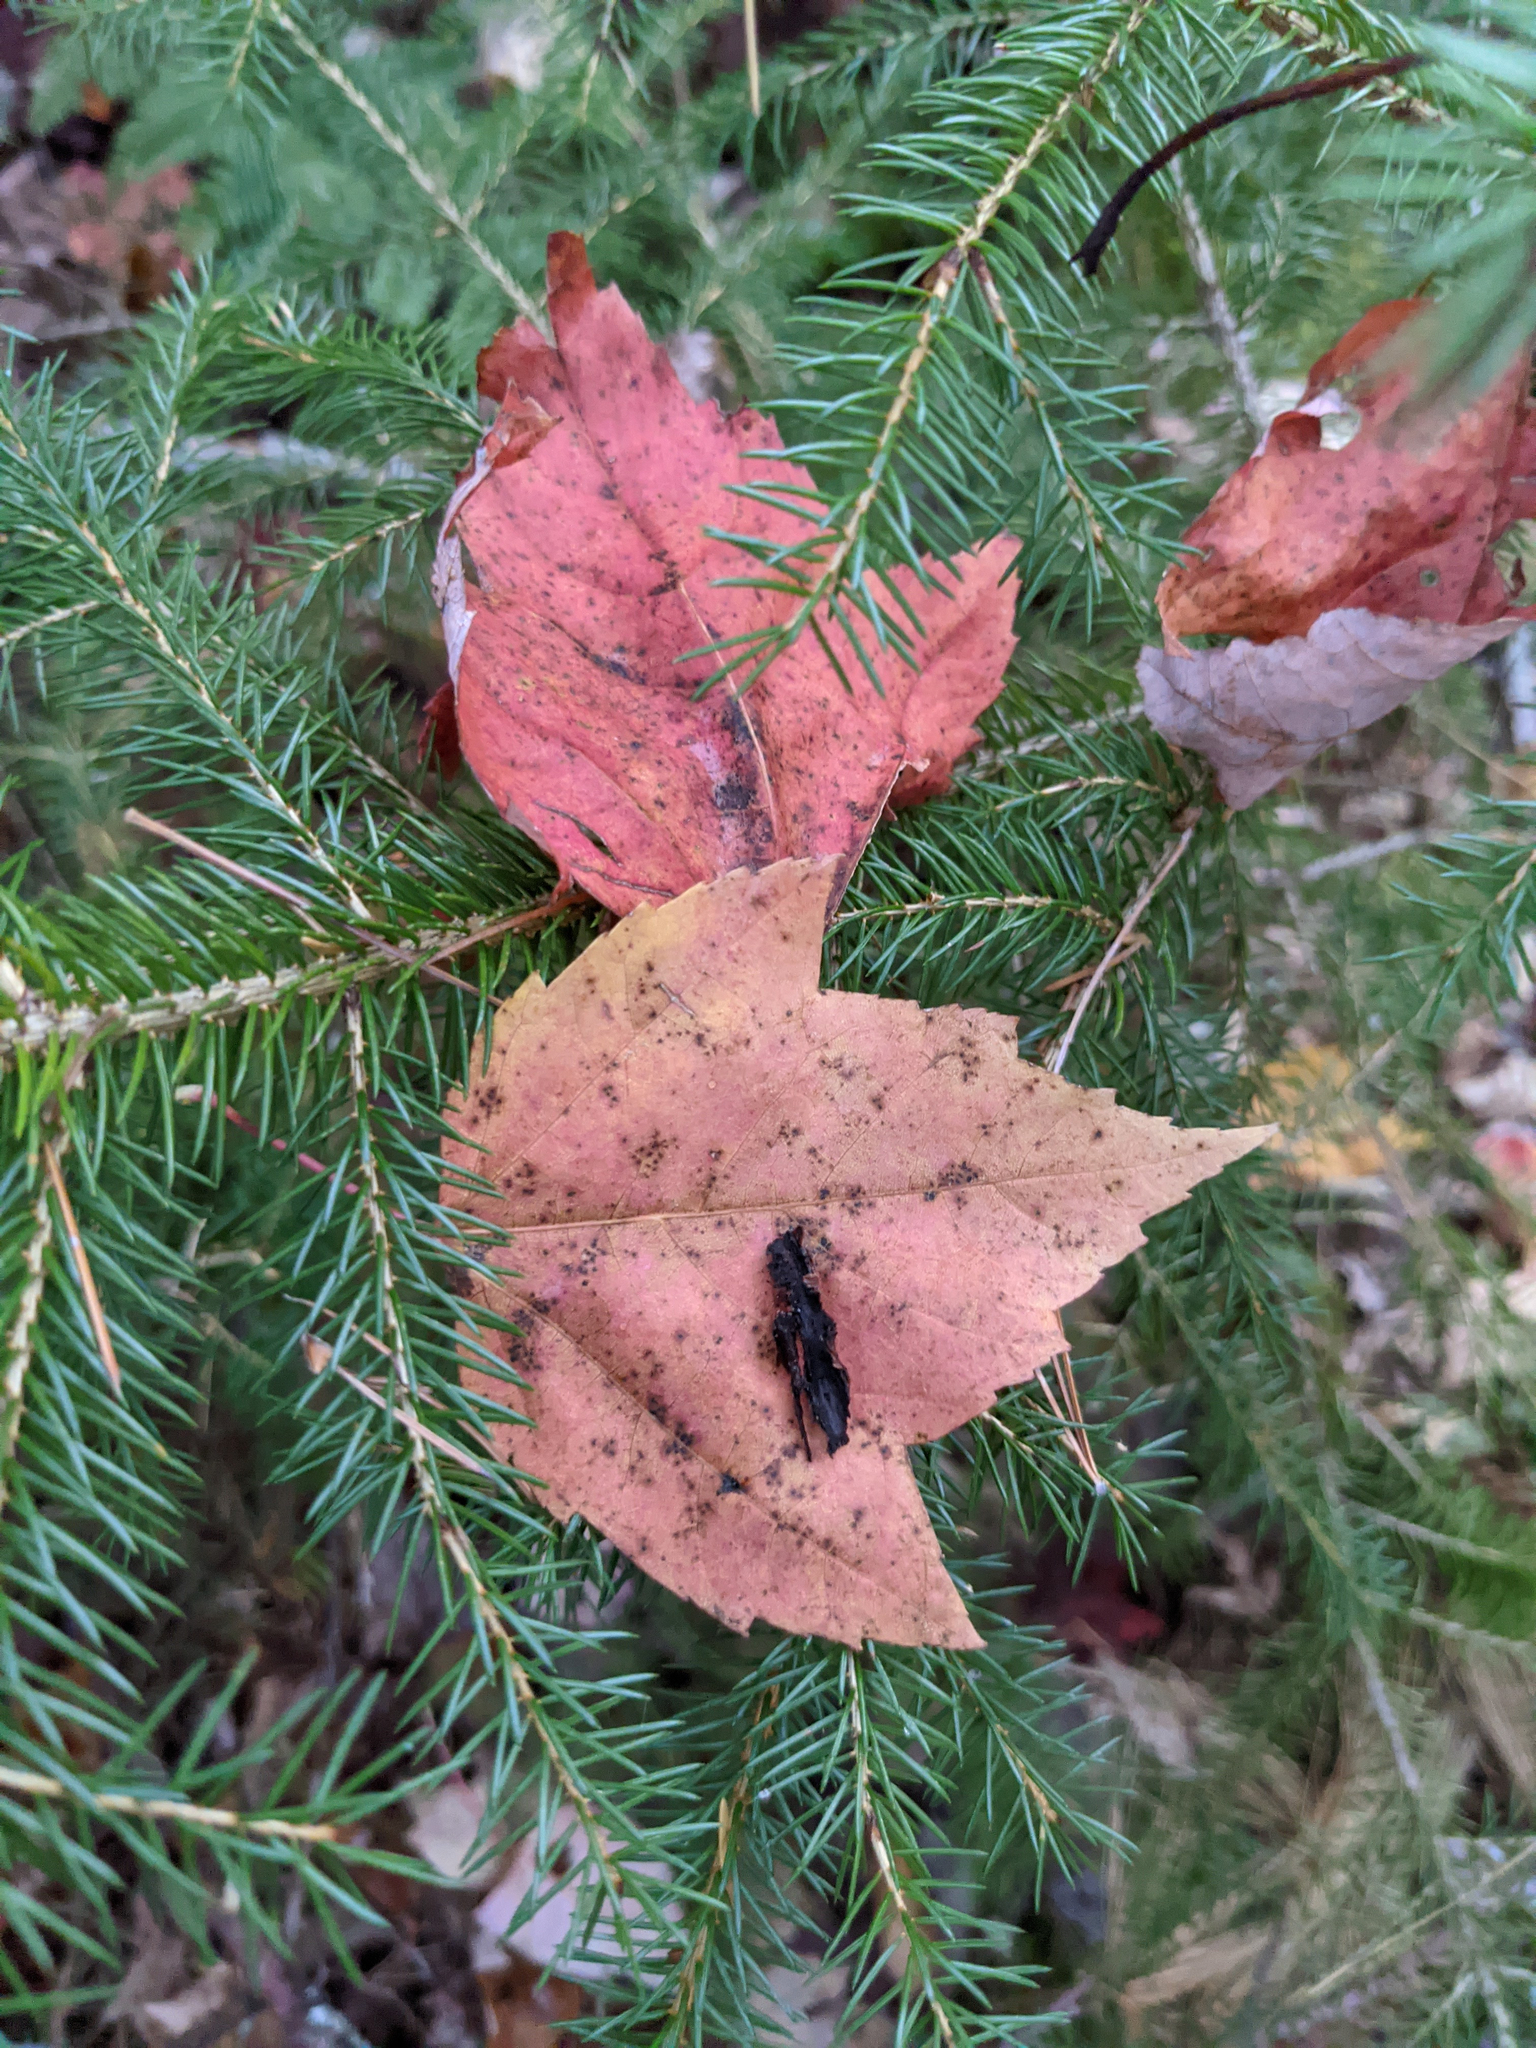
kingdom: Plantae
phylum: Tracheophyta
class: Magnoliopsida
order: Sapindales
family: Sapindaceae
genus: Acer
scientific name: Acer rubrum
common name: Red maple
